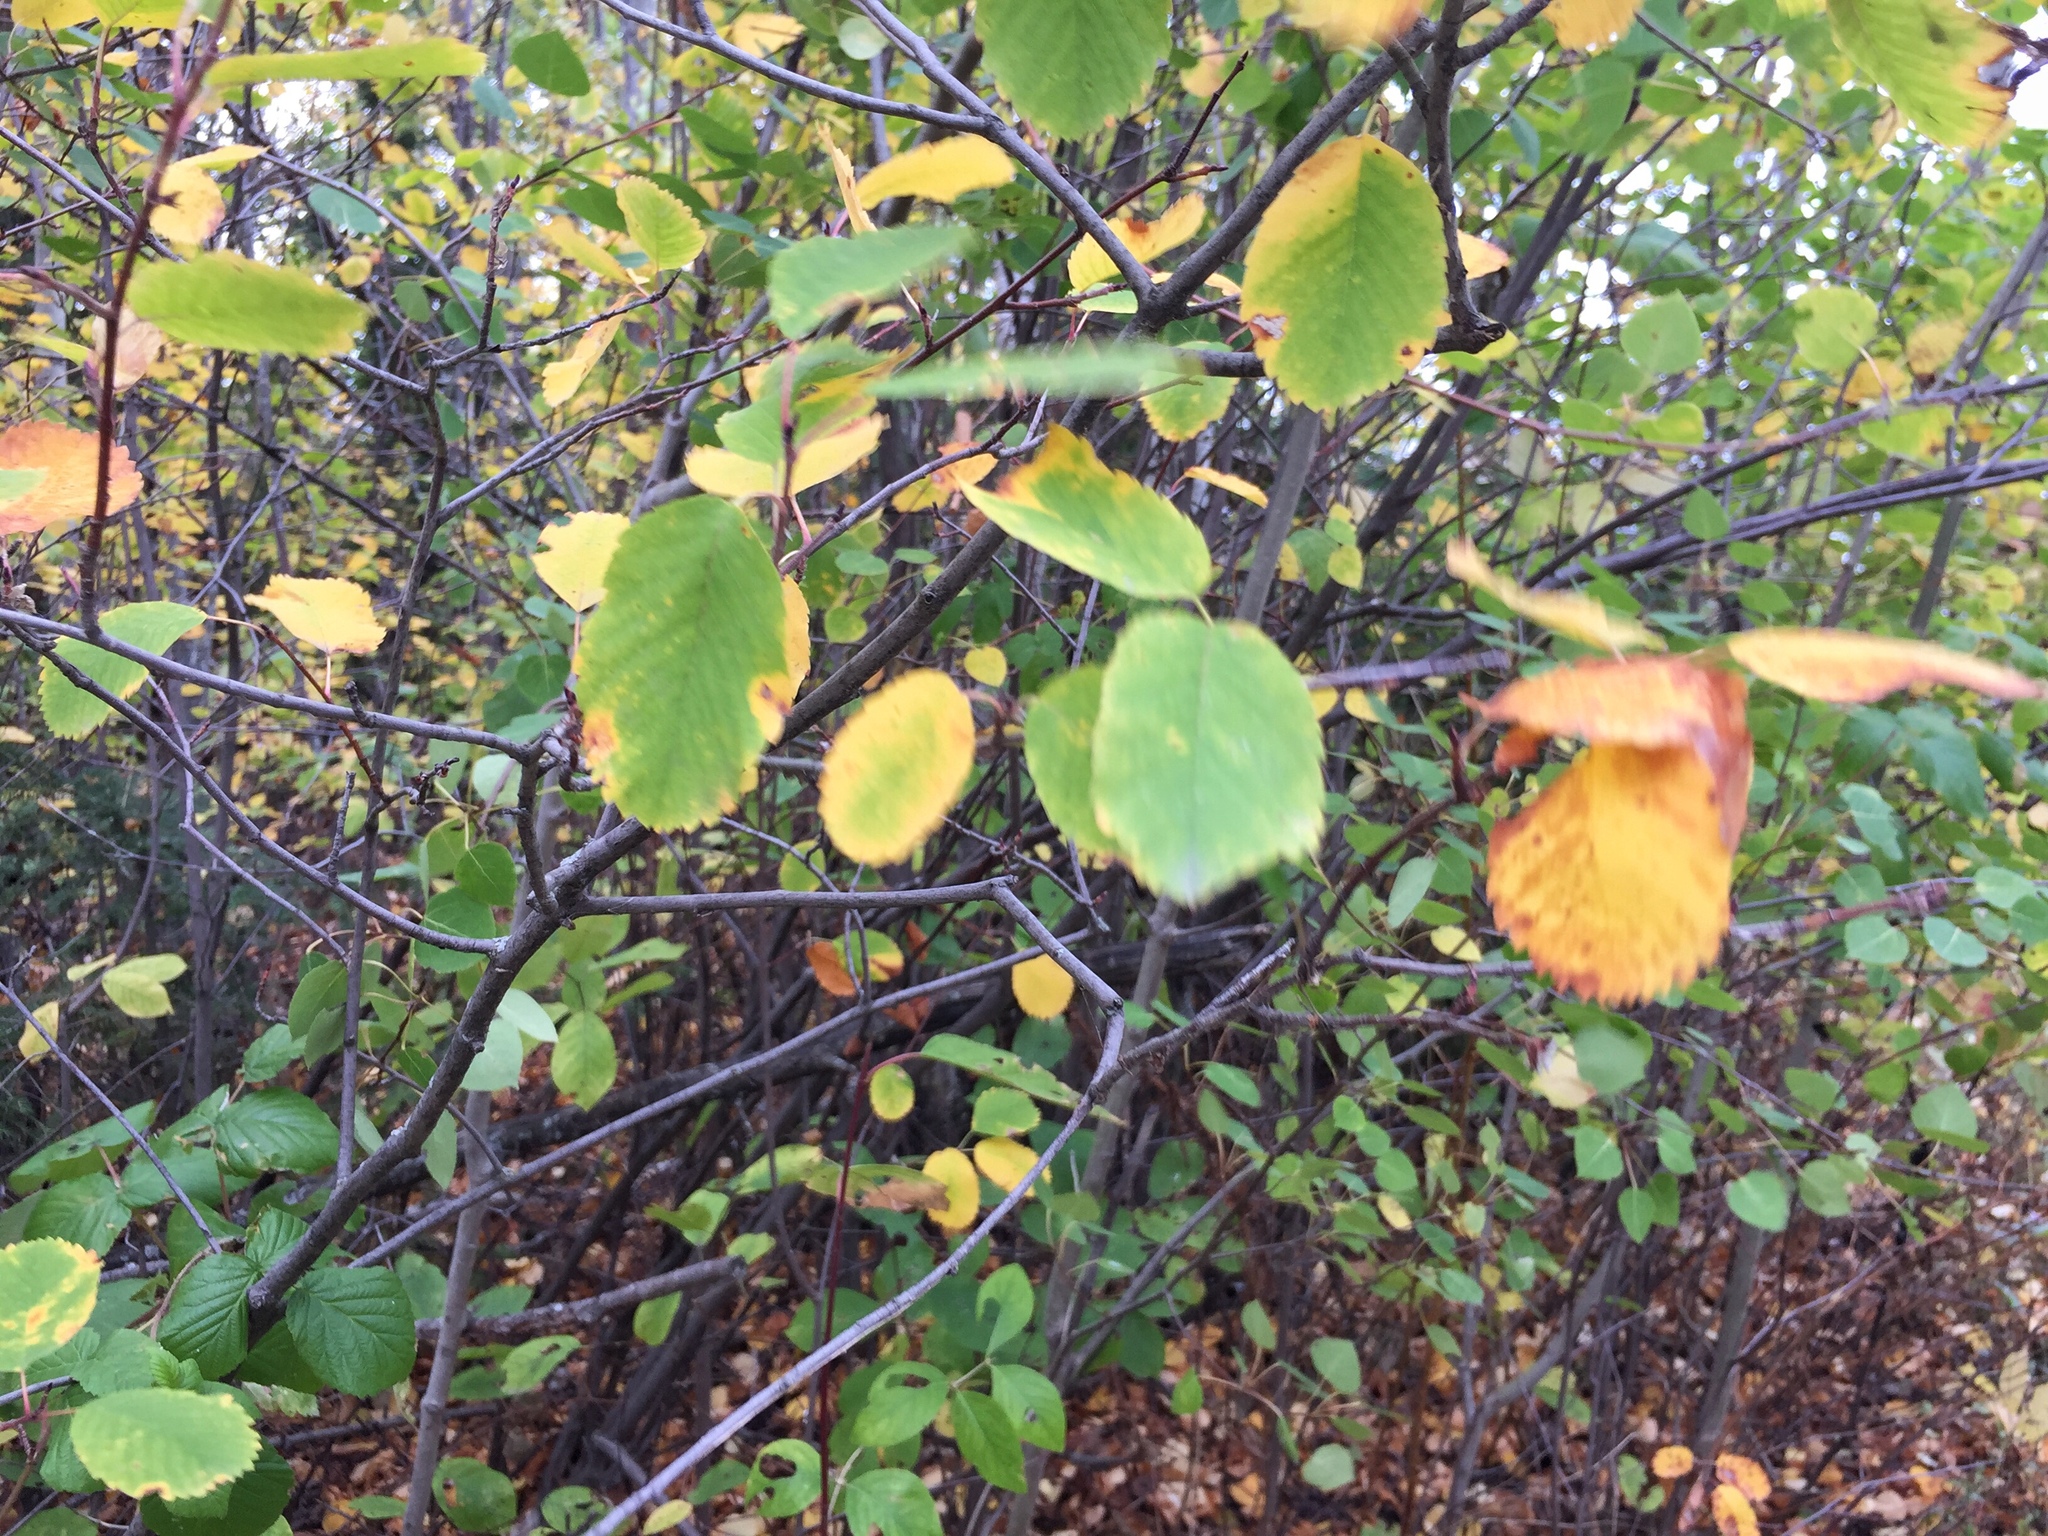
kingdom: Plantae
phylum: Tracheophyta
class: Magnoliopsida
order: Rosales
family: Rosaceae
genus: Amelanchier
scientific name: Amelanchier alnifolia
